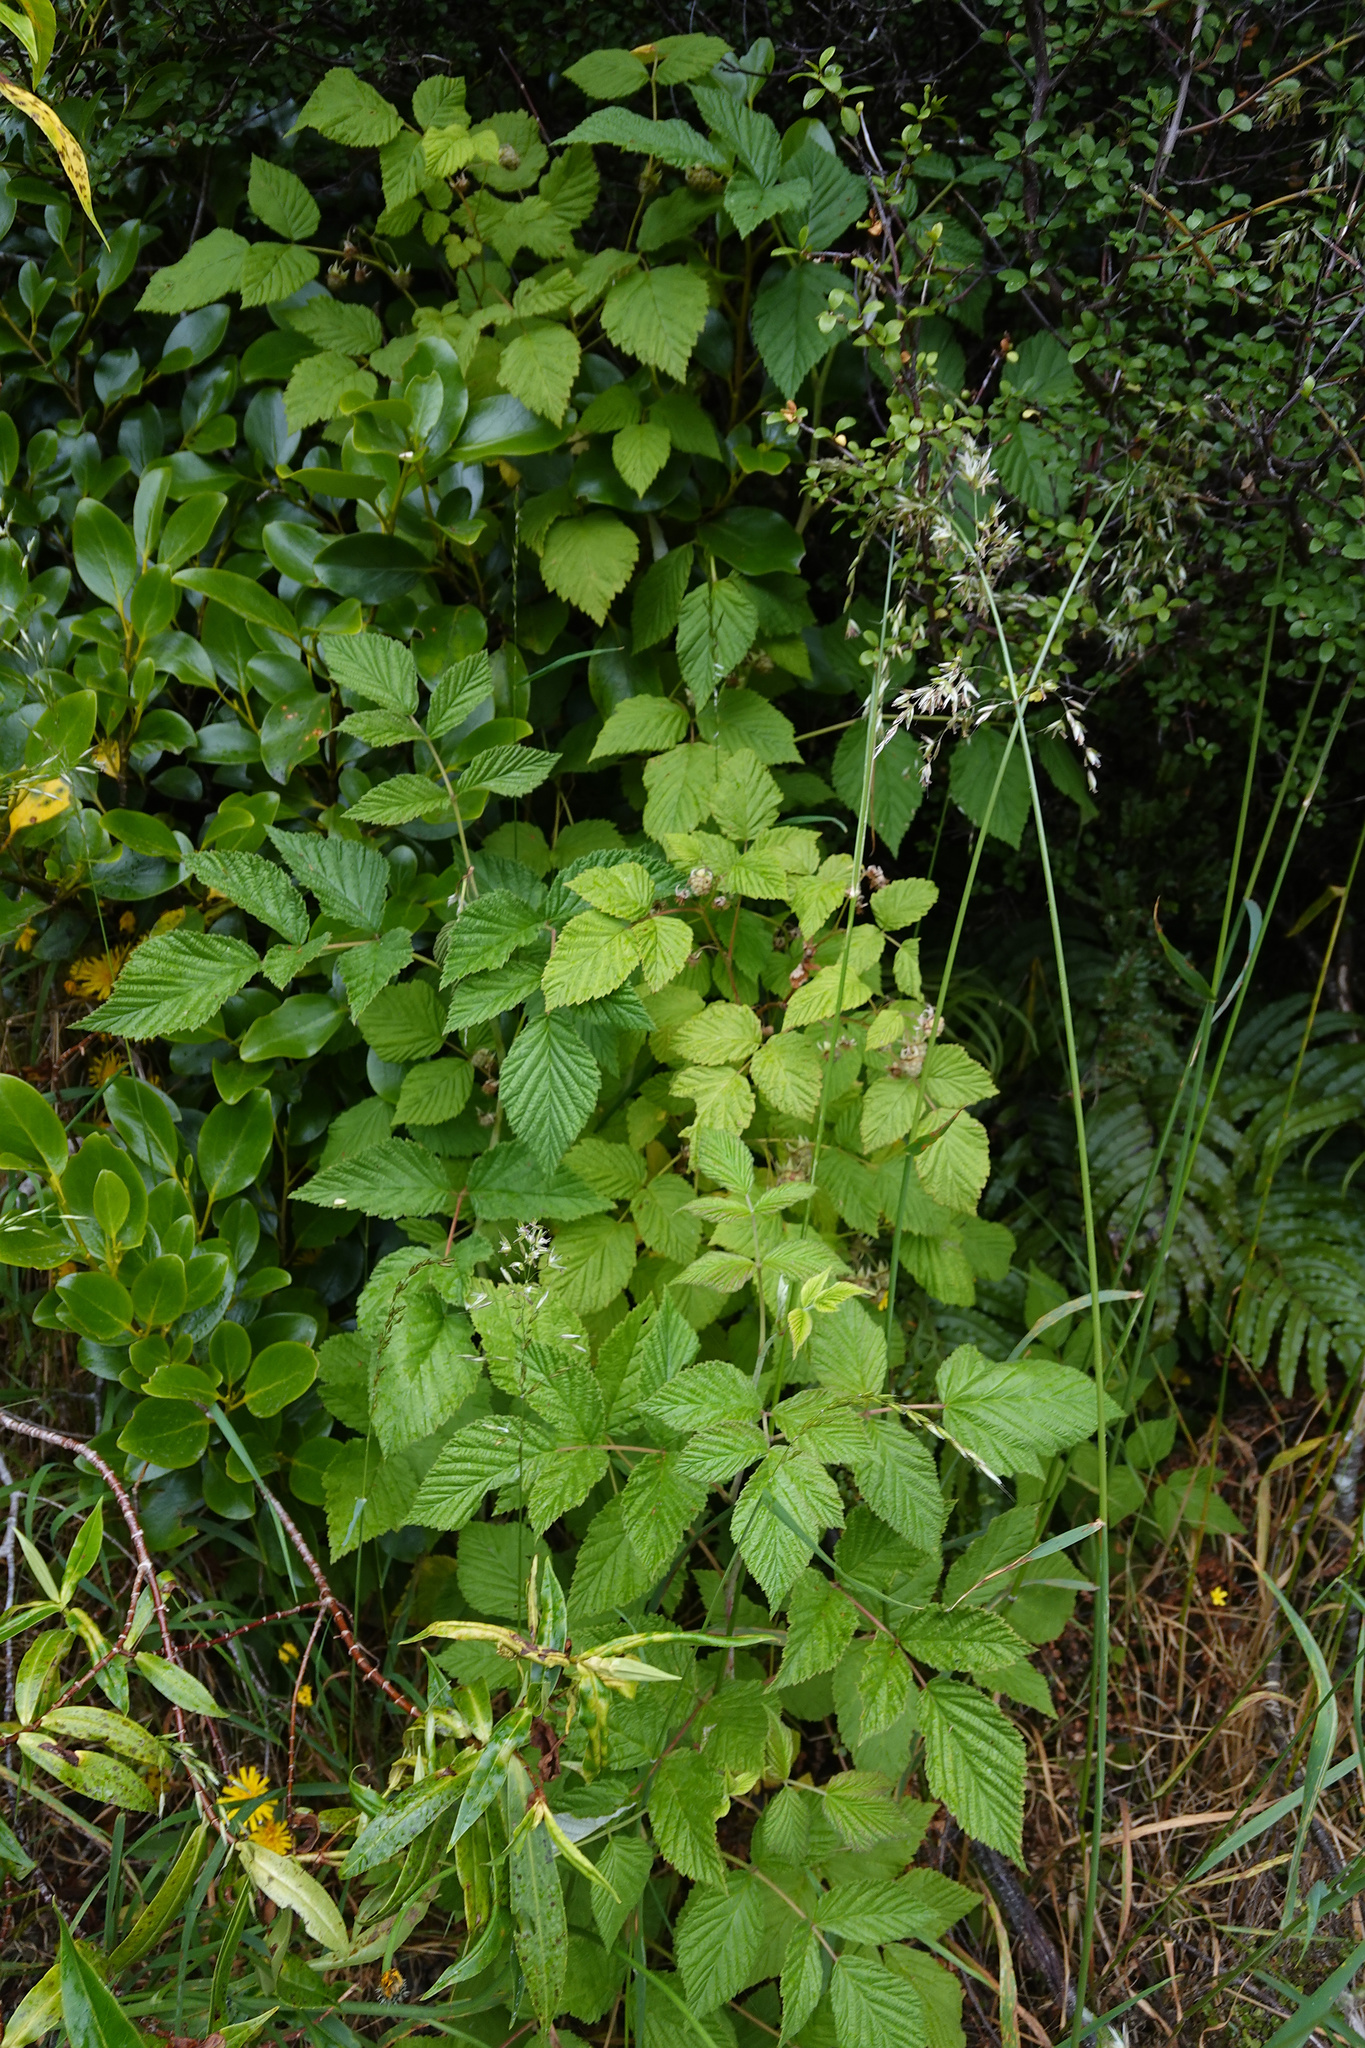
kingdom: Plantae
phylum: Tracheophyta
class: Magnoliopsida
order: Rosales
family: Rosaceae
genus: Rubus
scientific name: Rubus idaeus
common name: Raspberry
